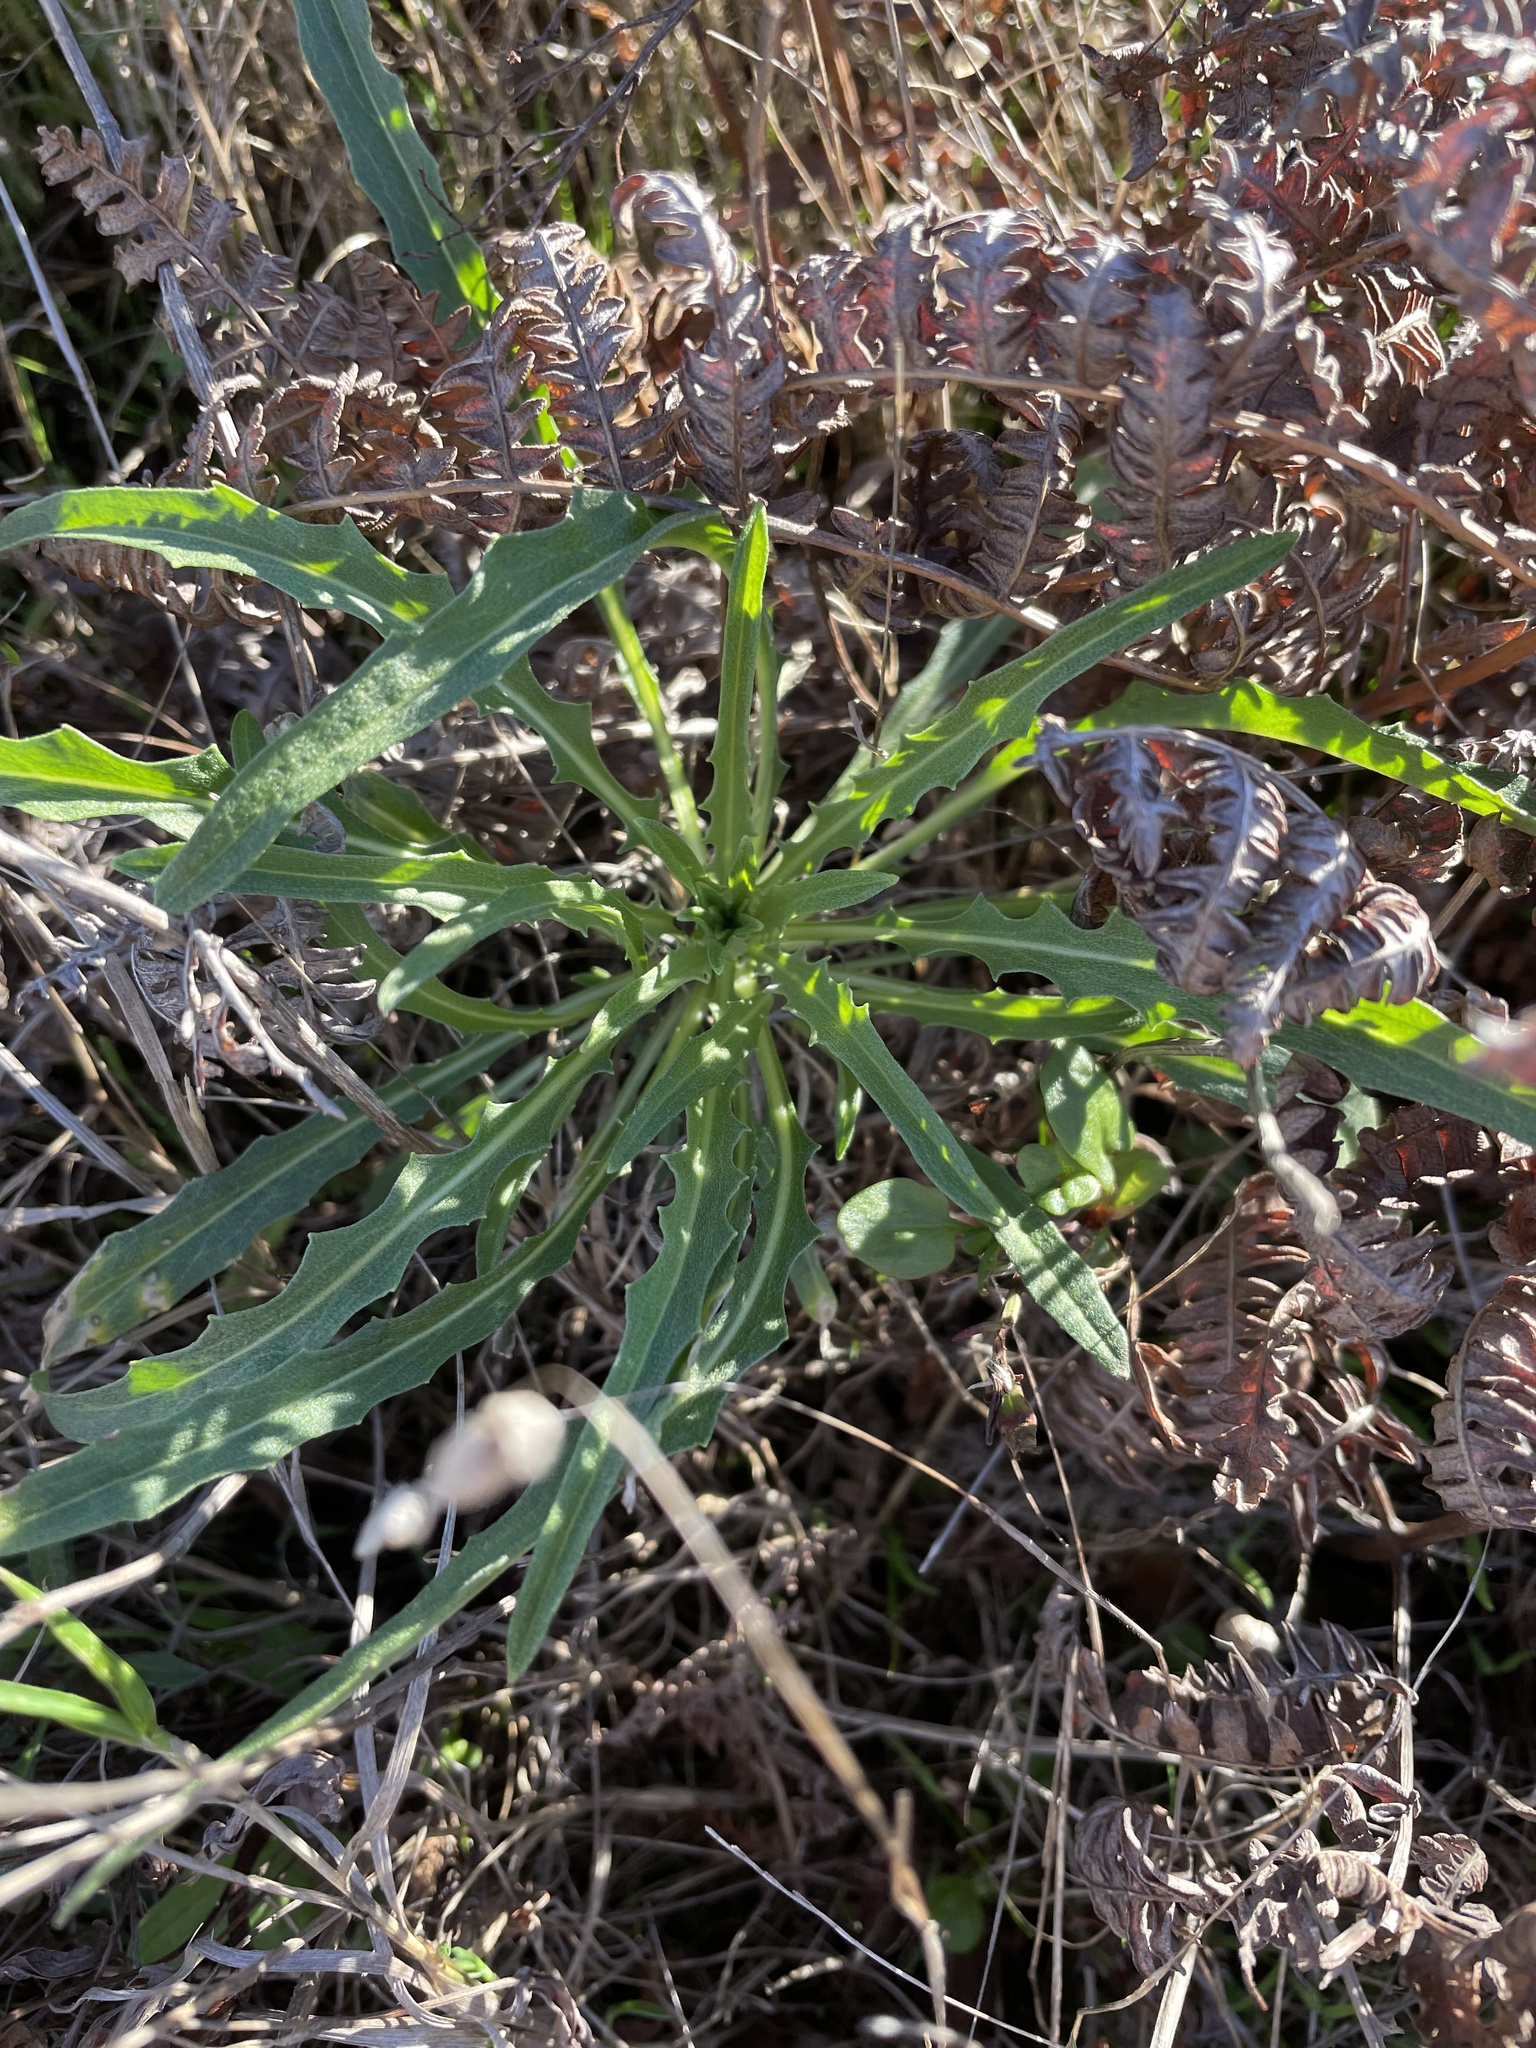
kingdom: Plantae
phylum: Tracheophyta
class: Magnoliopsida
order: Brassicales
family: Brassicaceae
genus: Erysimum
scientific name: Erysimum franciscanum
